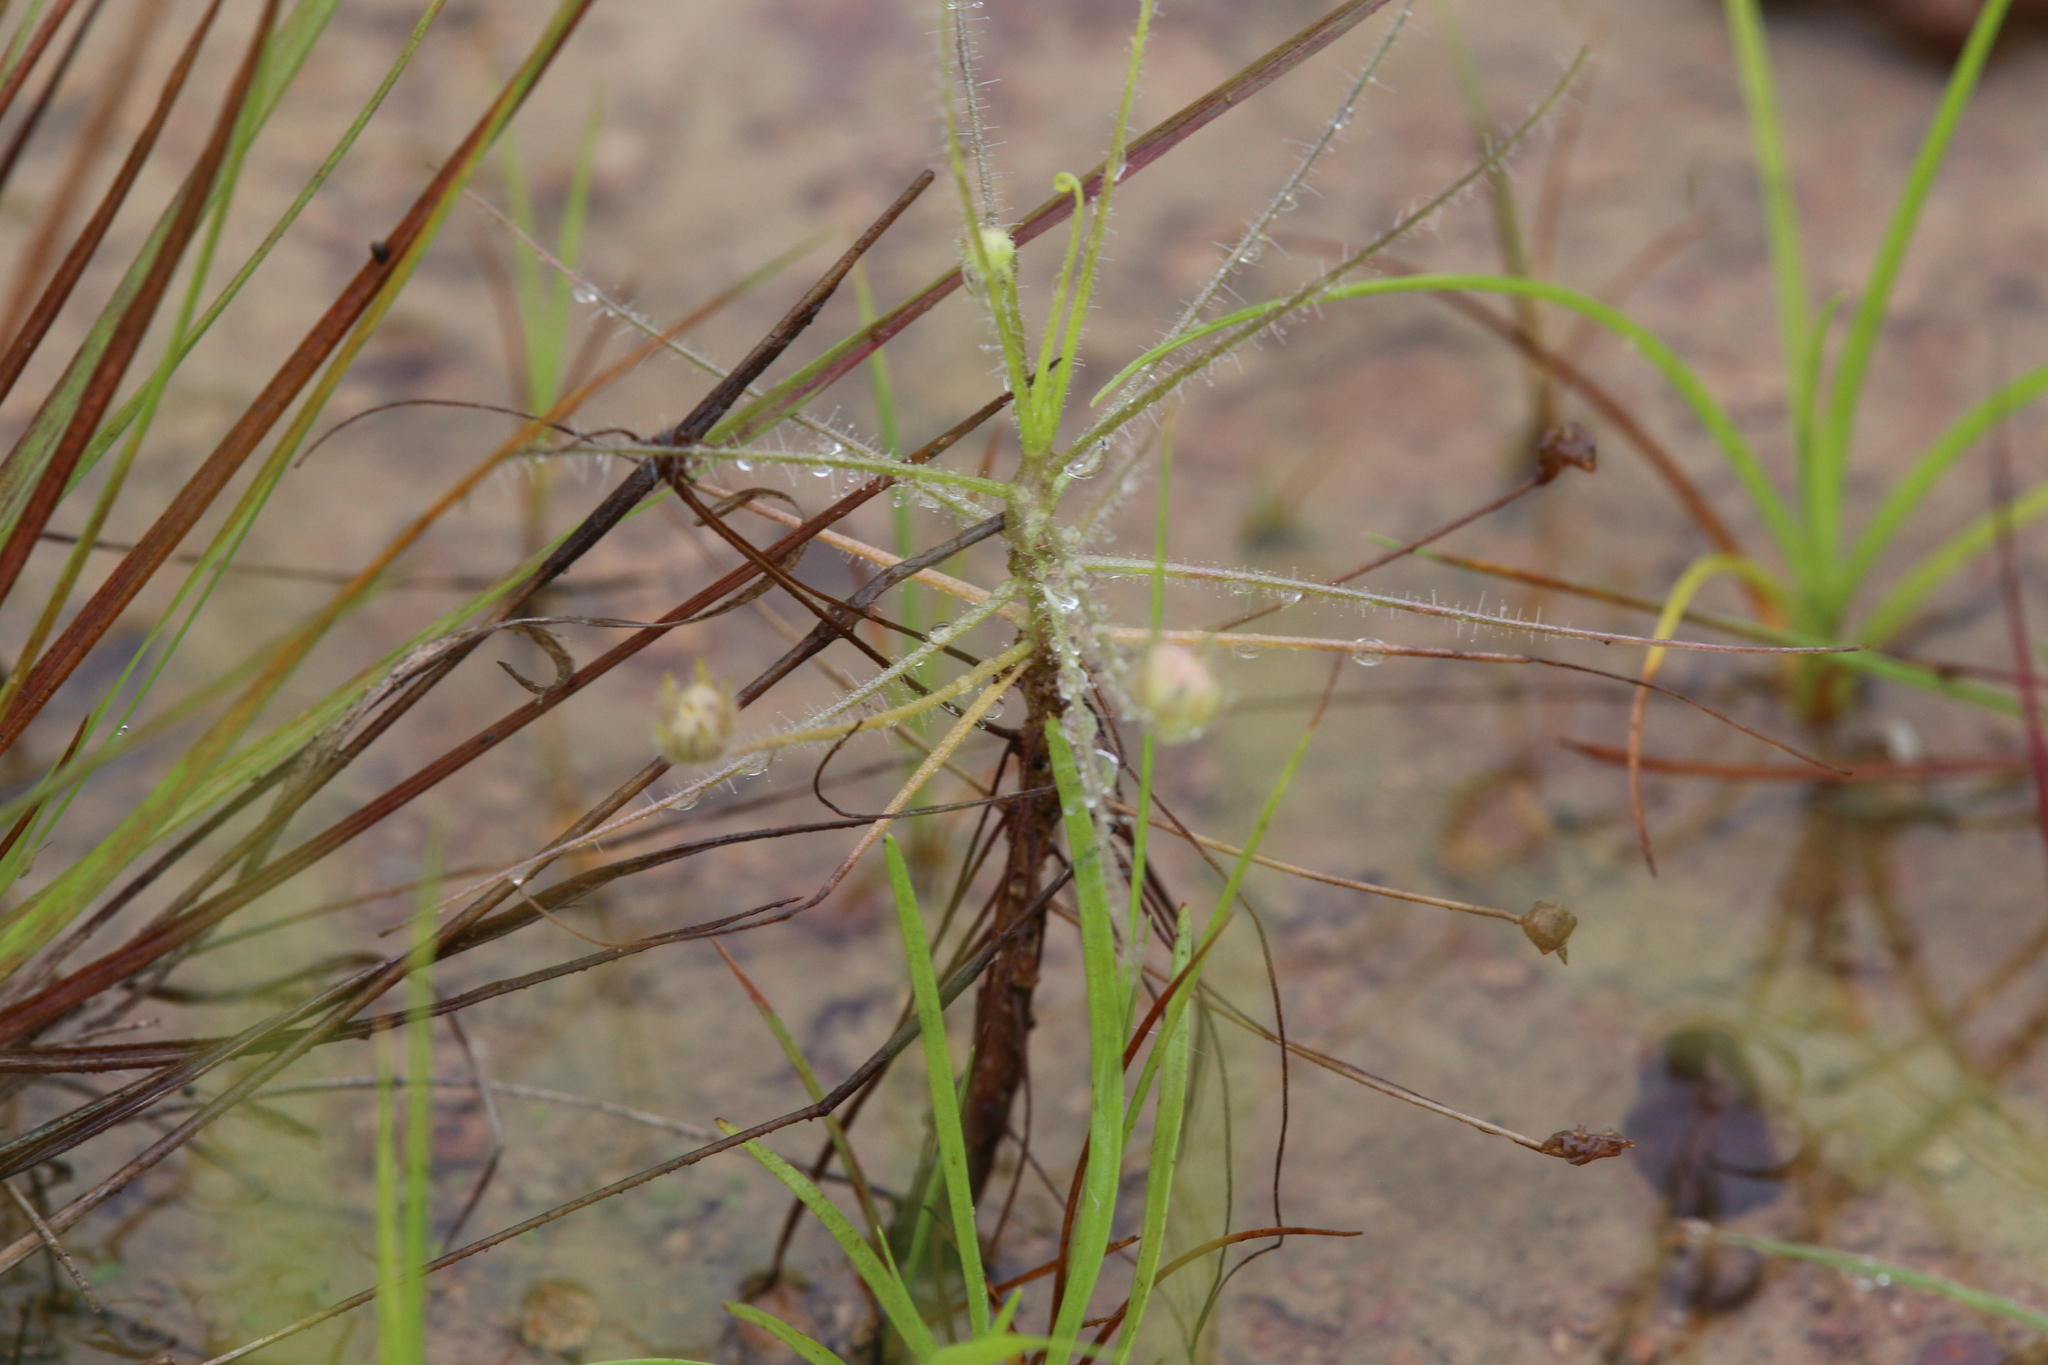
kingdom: Plantae
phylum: Tracheophyta
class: Magnoliopsida
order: Lamiales
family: Byblidaceae
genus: Byblis
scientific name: Byblis liniflora
